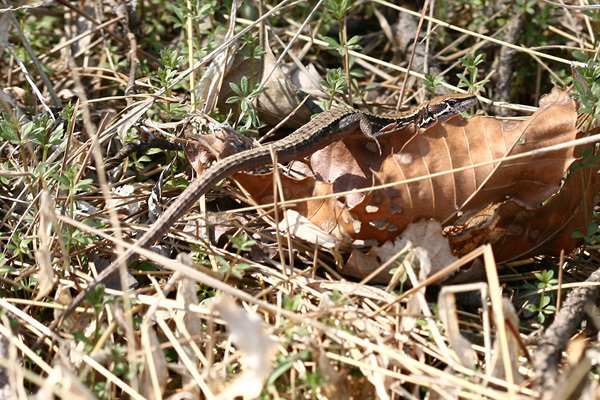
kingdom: Animalia
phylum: Chordata
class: Squamata
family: Lacertidae
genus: Takydromus
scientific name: Takydromus amurensis
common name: Amur grass lizard
